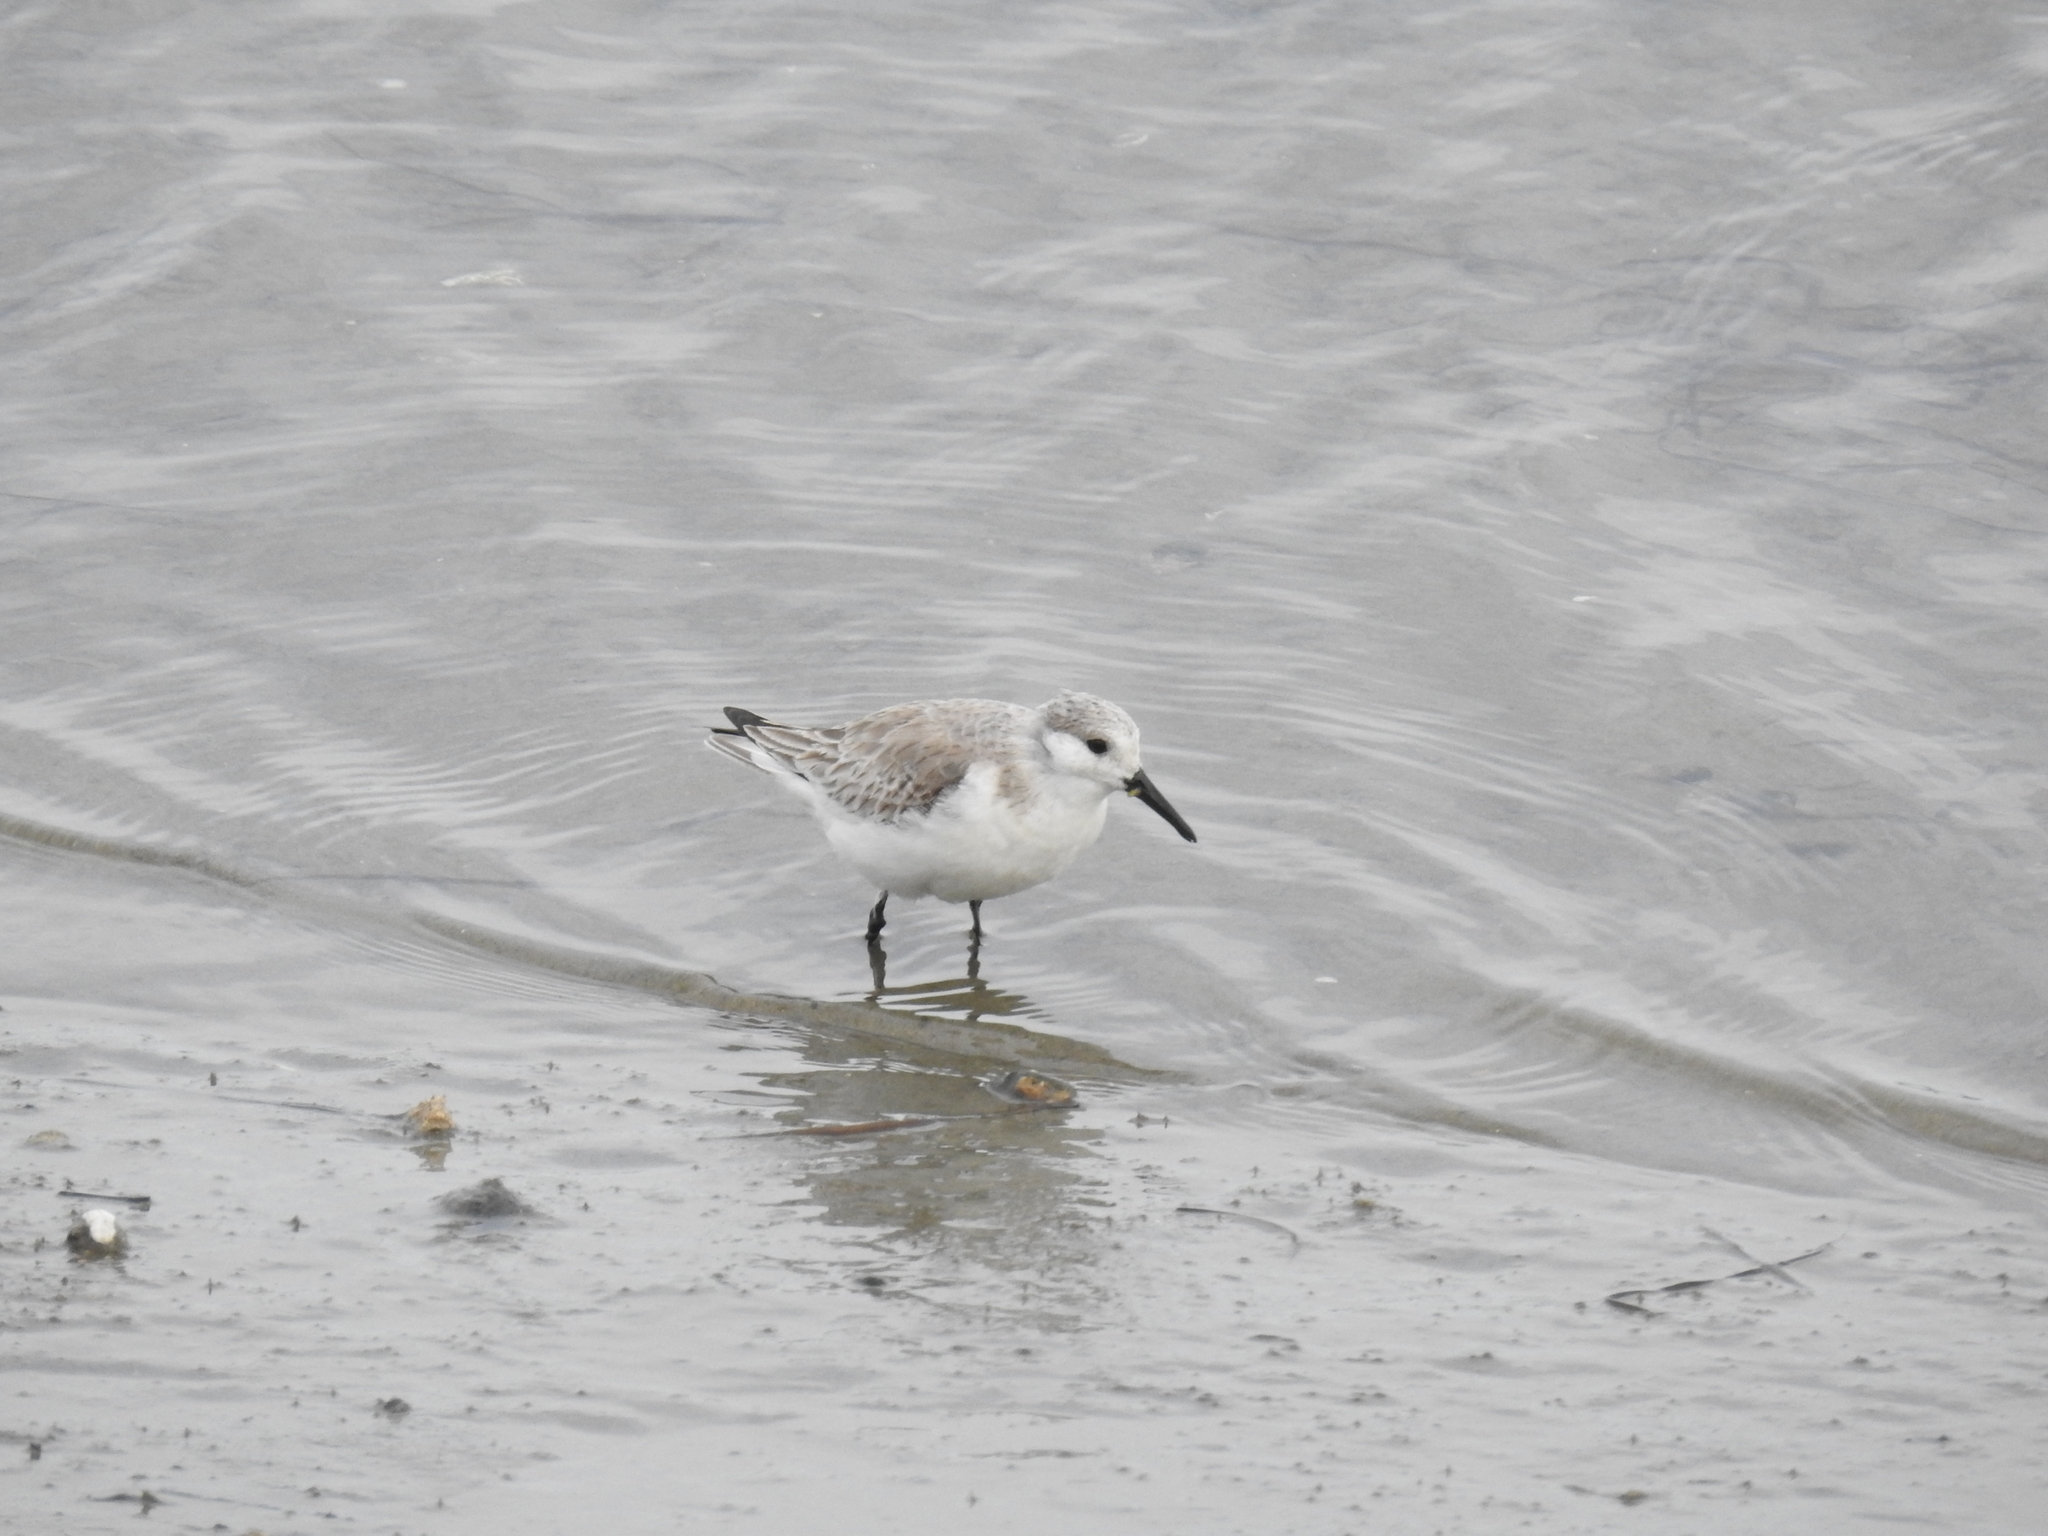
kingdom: Animalia
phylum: Chordata
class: Aves
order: Charadriiformes
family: Scolopacidae
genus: Calidris
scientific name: Calidris alba
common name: Sanderling
